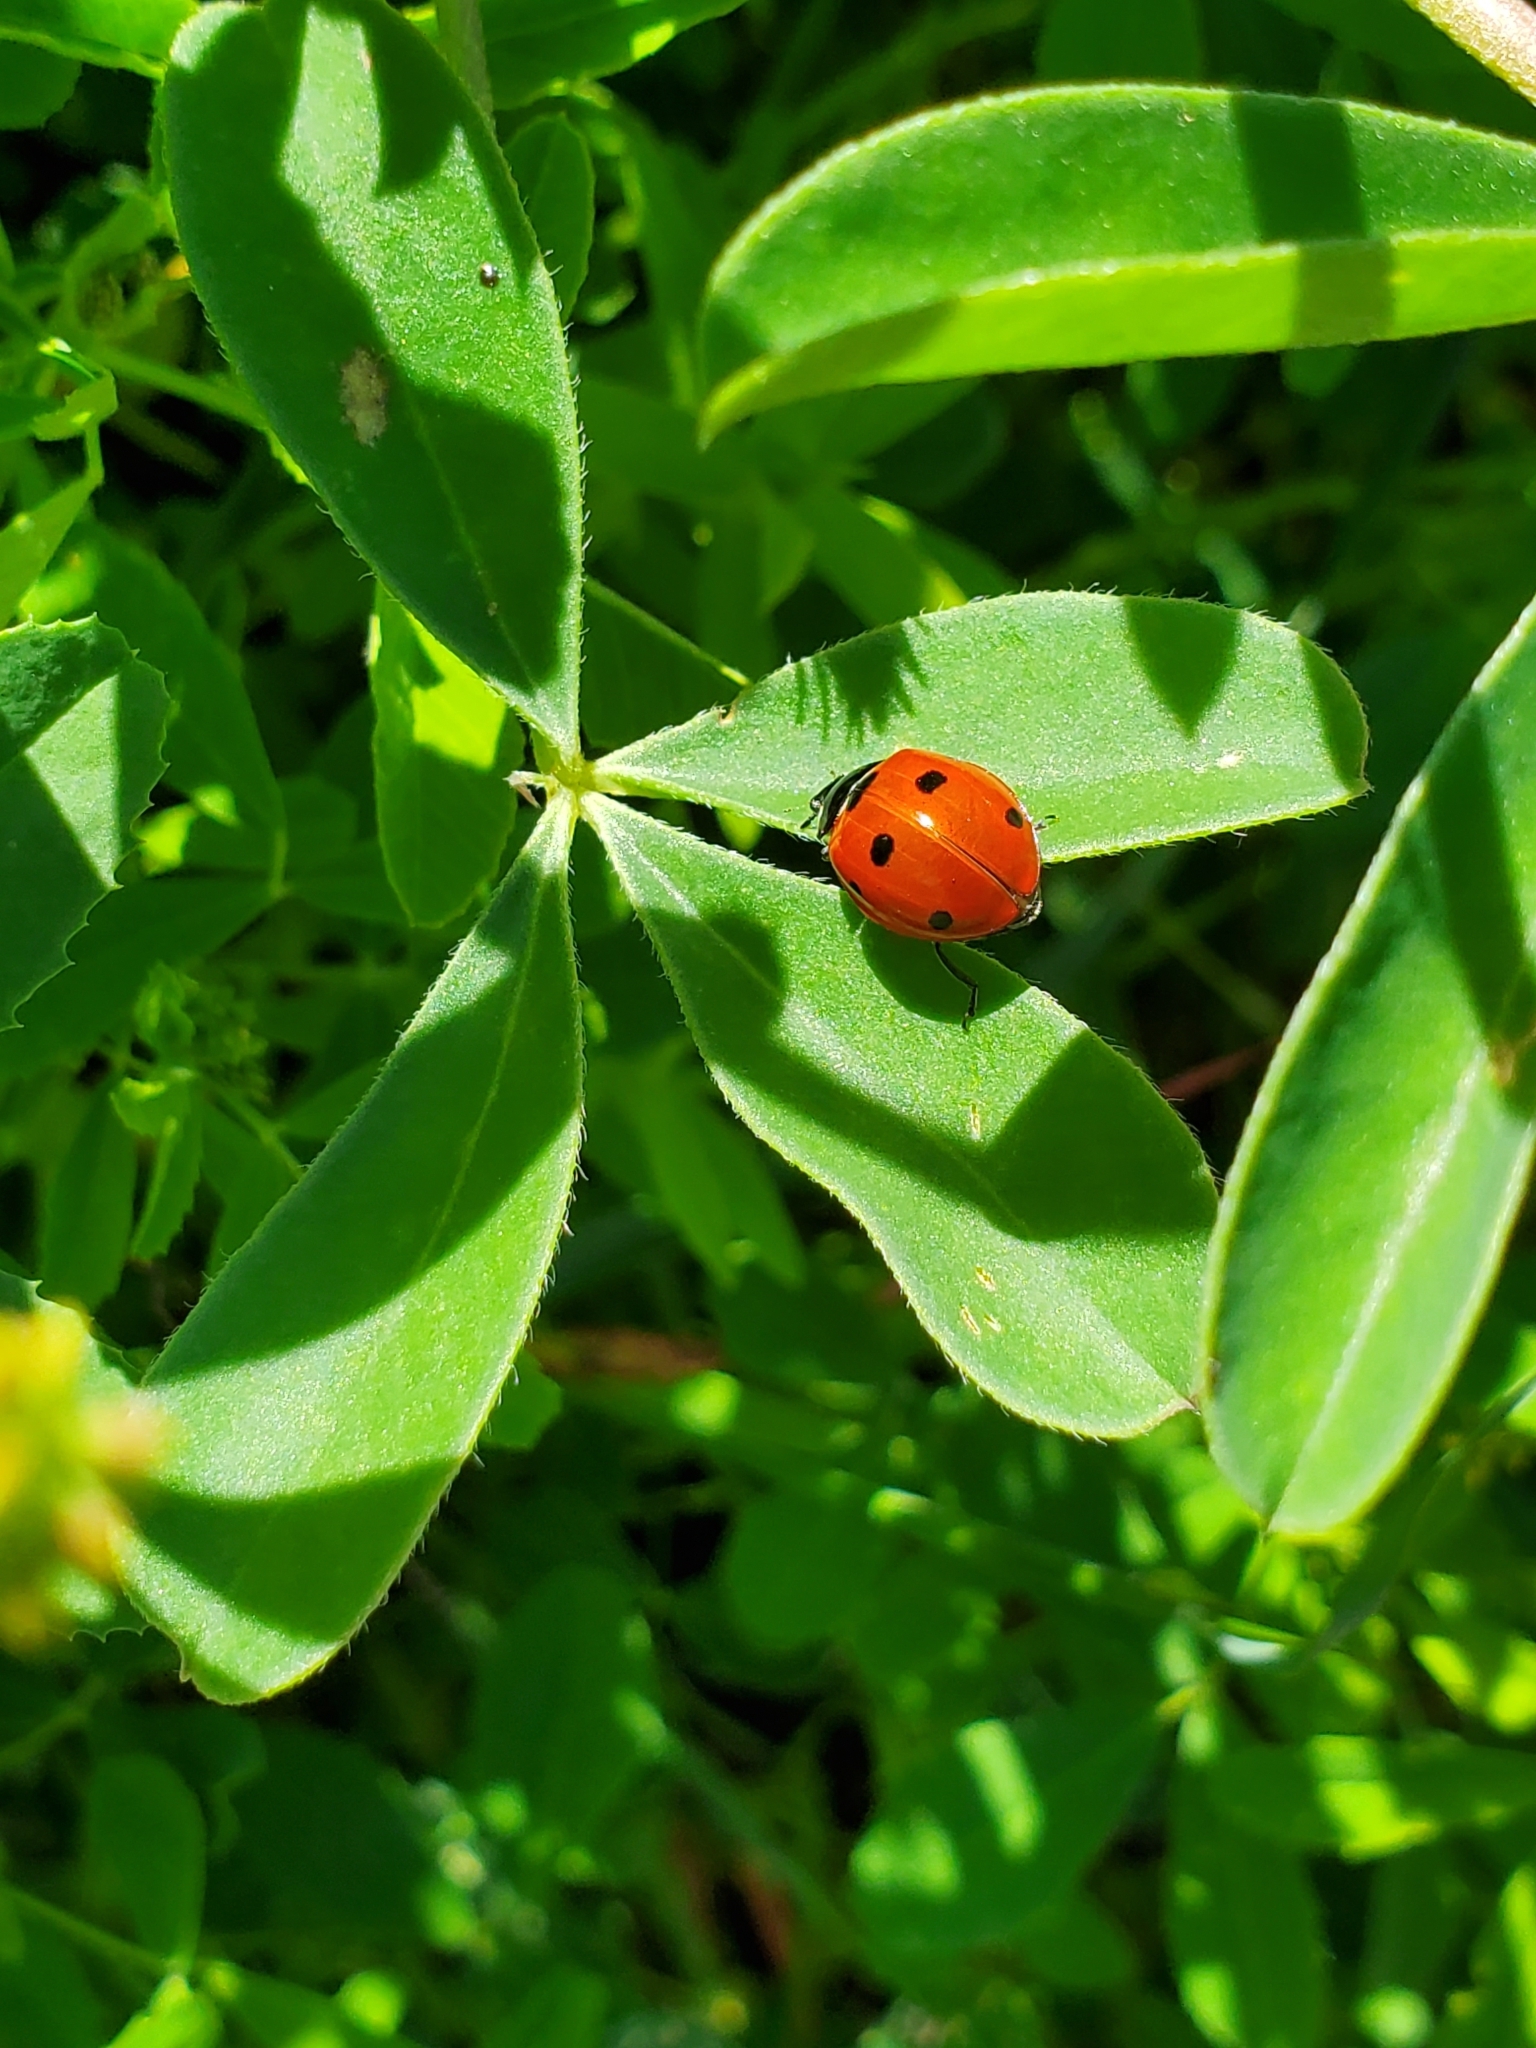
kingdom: Animalia
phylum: Arthropoda
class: Insecta
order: Coleoptera
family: Coccinellidae
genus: Coccinella
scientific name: Coccinella septempunctata
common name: Sevenspotted lady beetle
